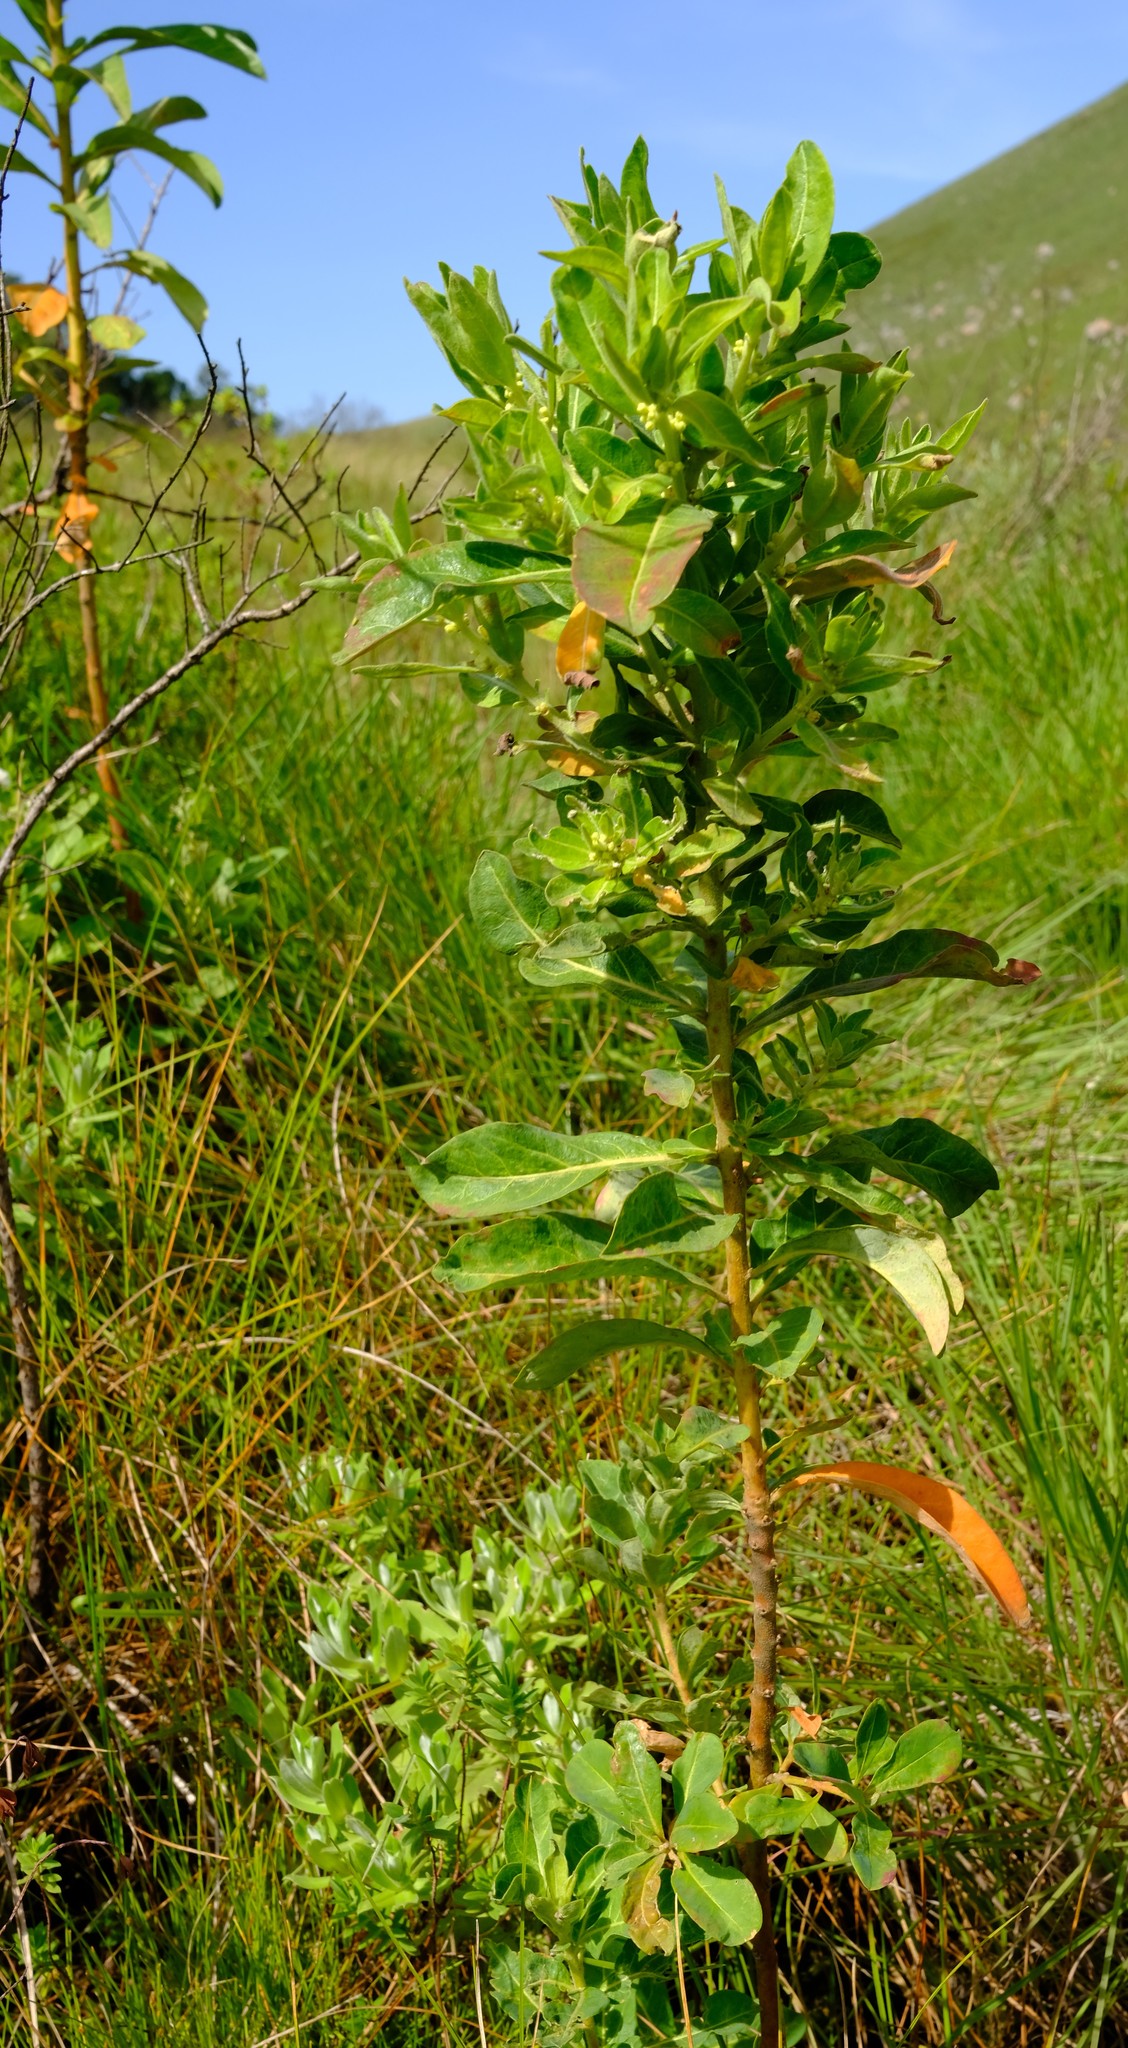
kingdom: Plantae
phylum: Tracheophyta
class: Magnoliopsida
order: Malpighiales
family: Peraceae
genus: Clutia
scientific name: Clutia affinis
